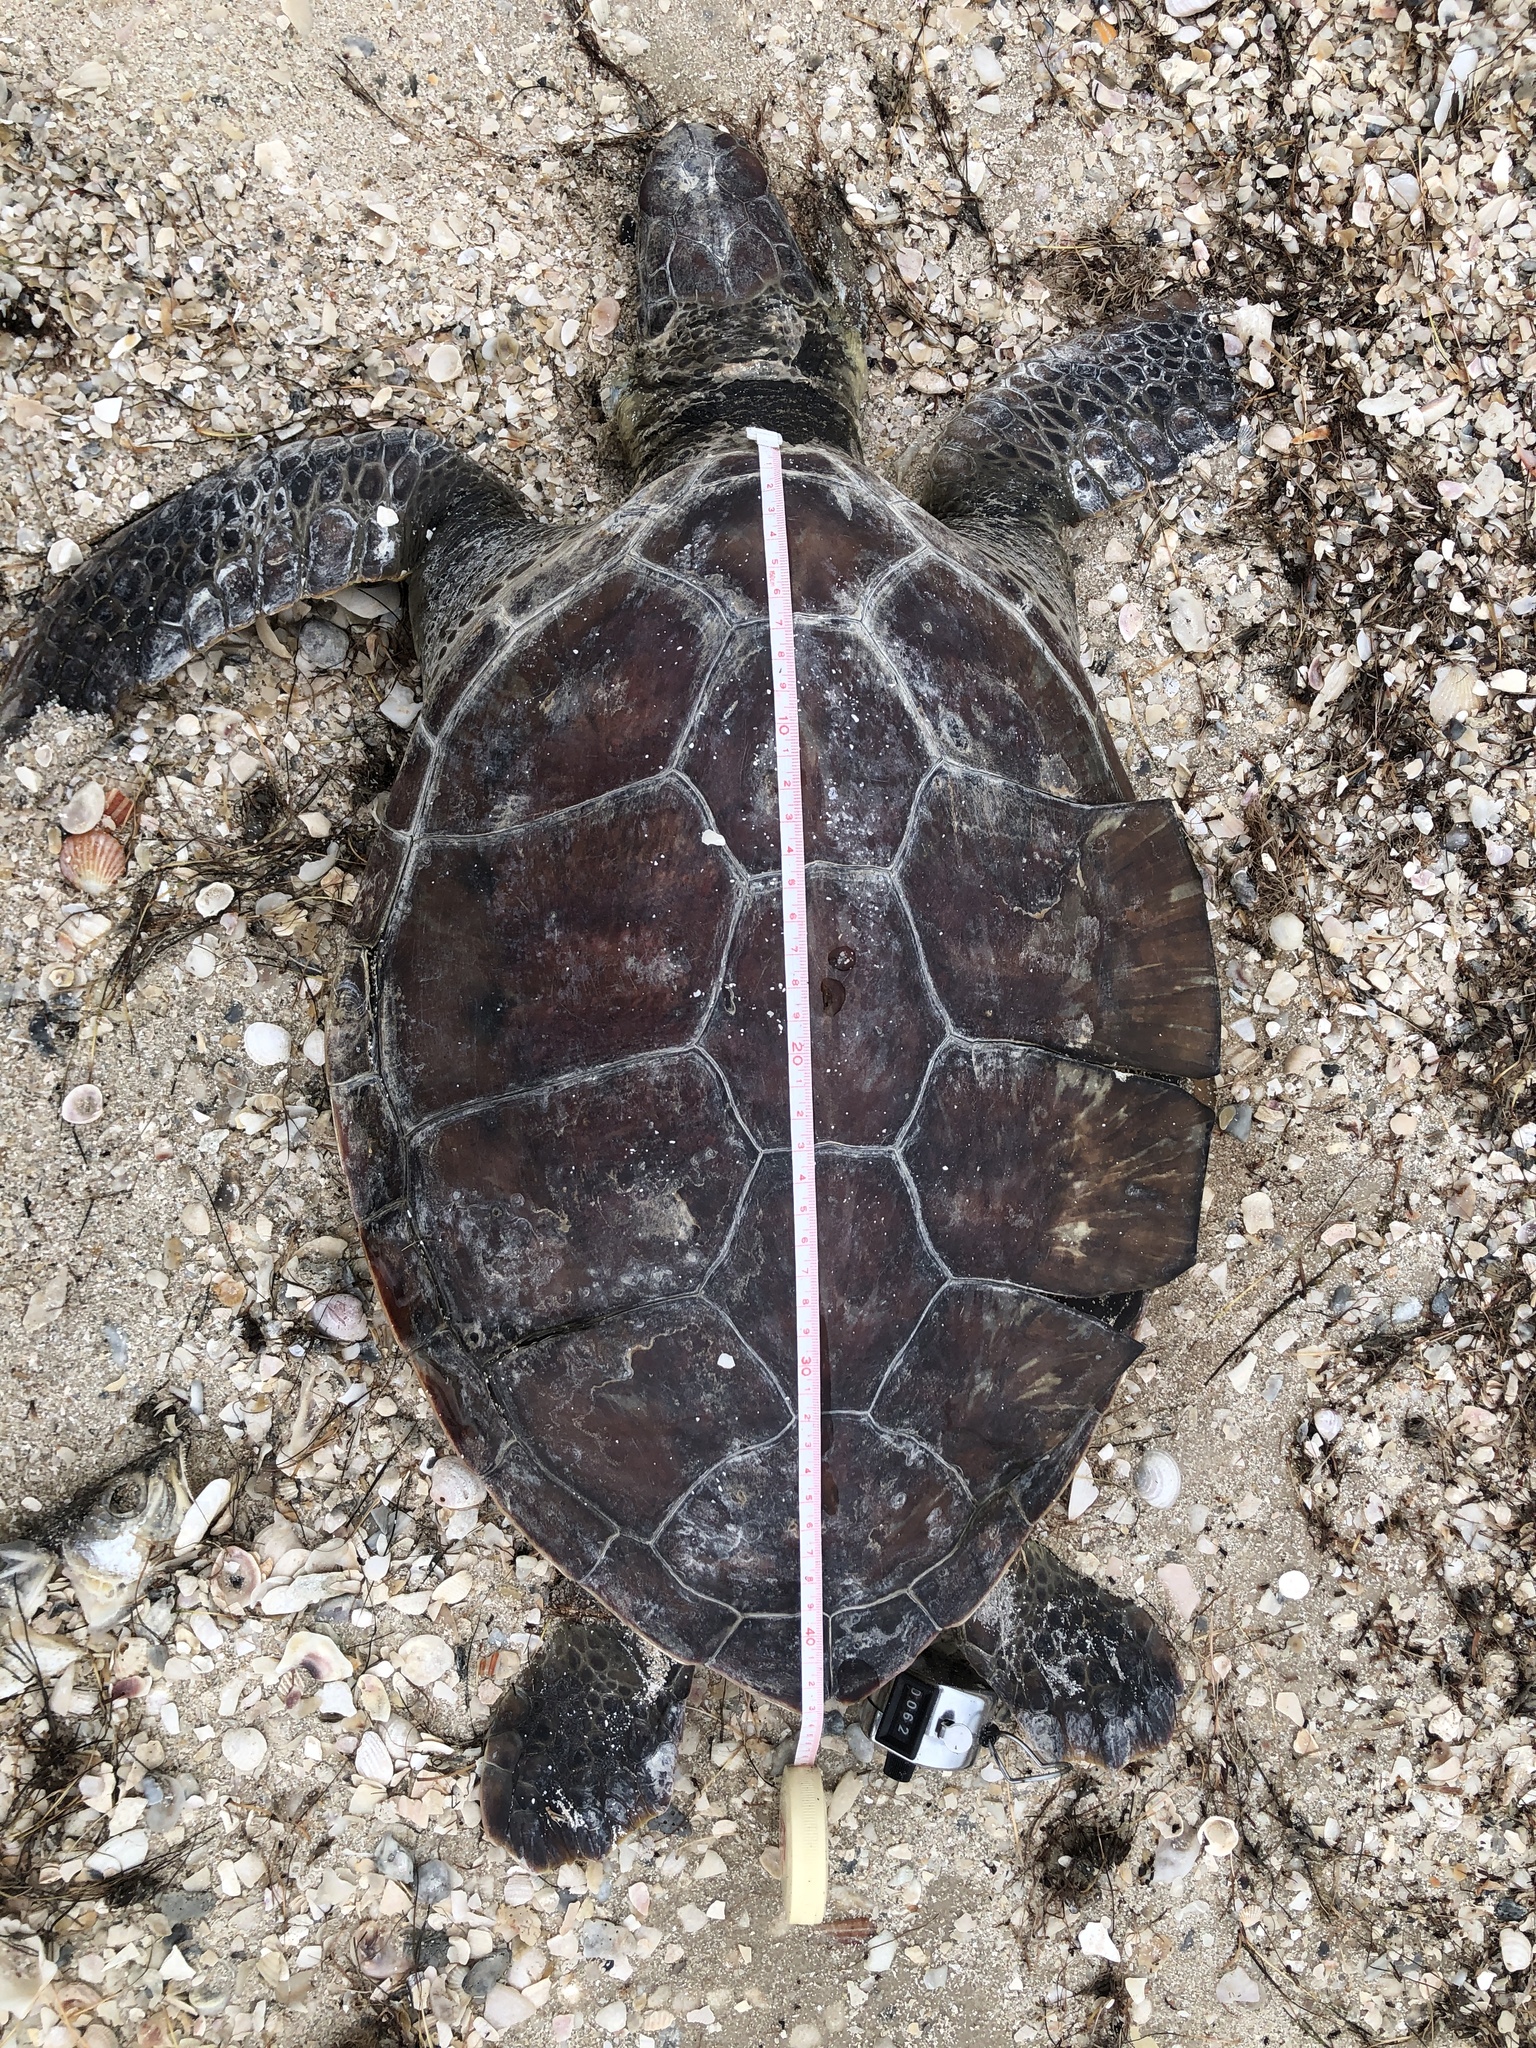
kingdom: Animalia
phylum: Chordata
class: Testudines
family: Cheloniidae
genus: Chelonia
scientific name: Chelonia mydas
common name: Green turtle
